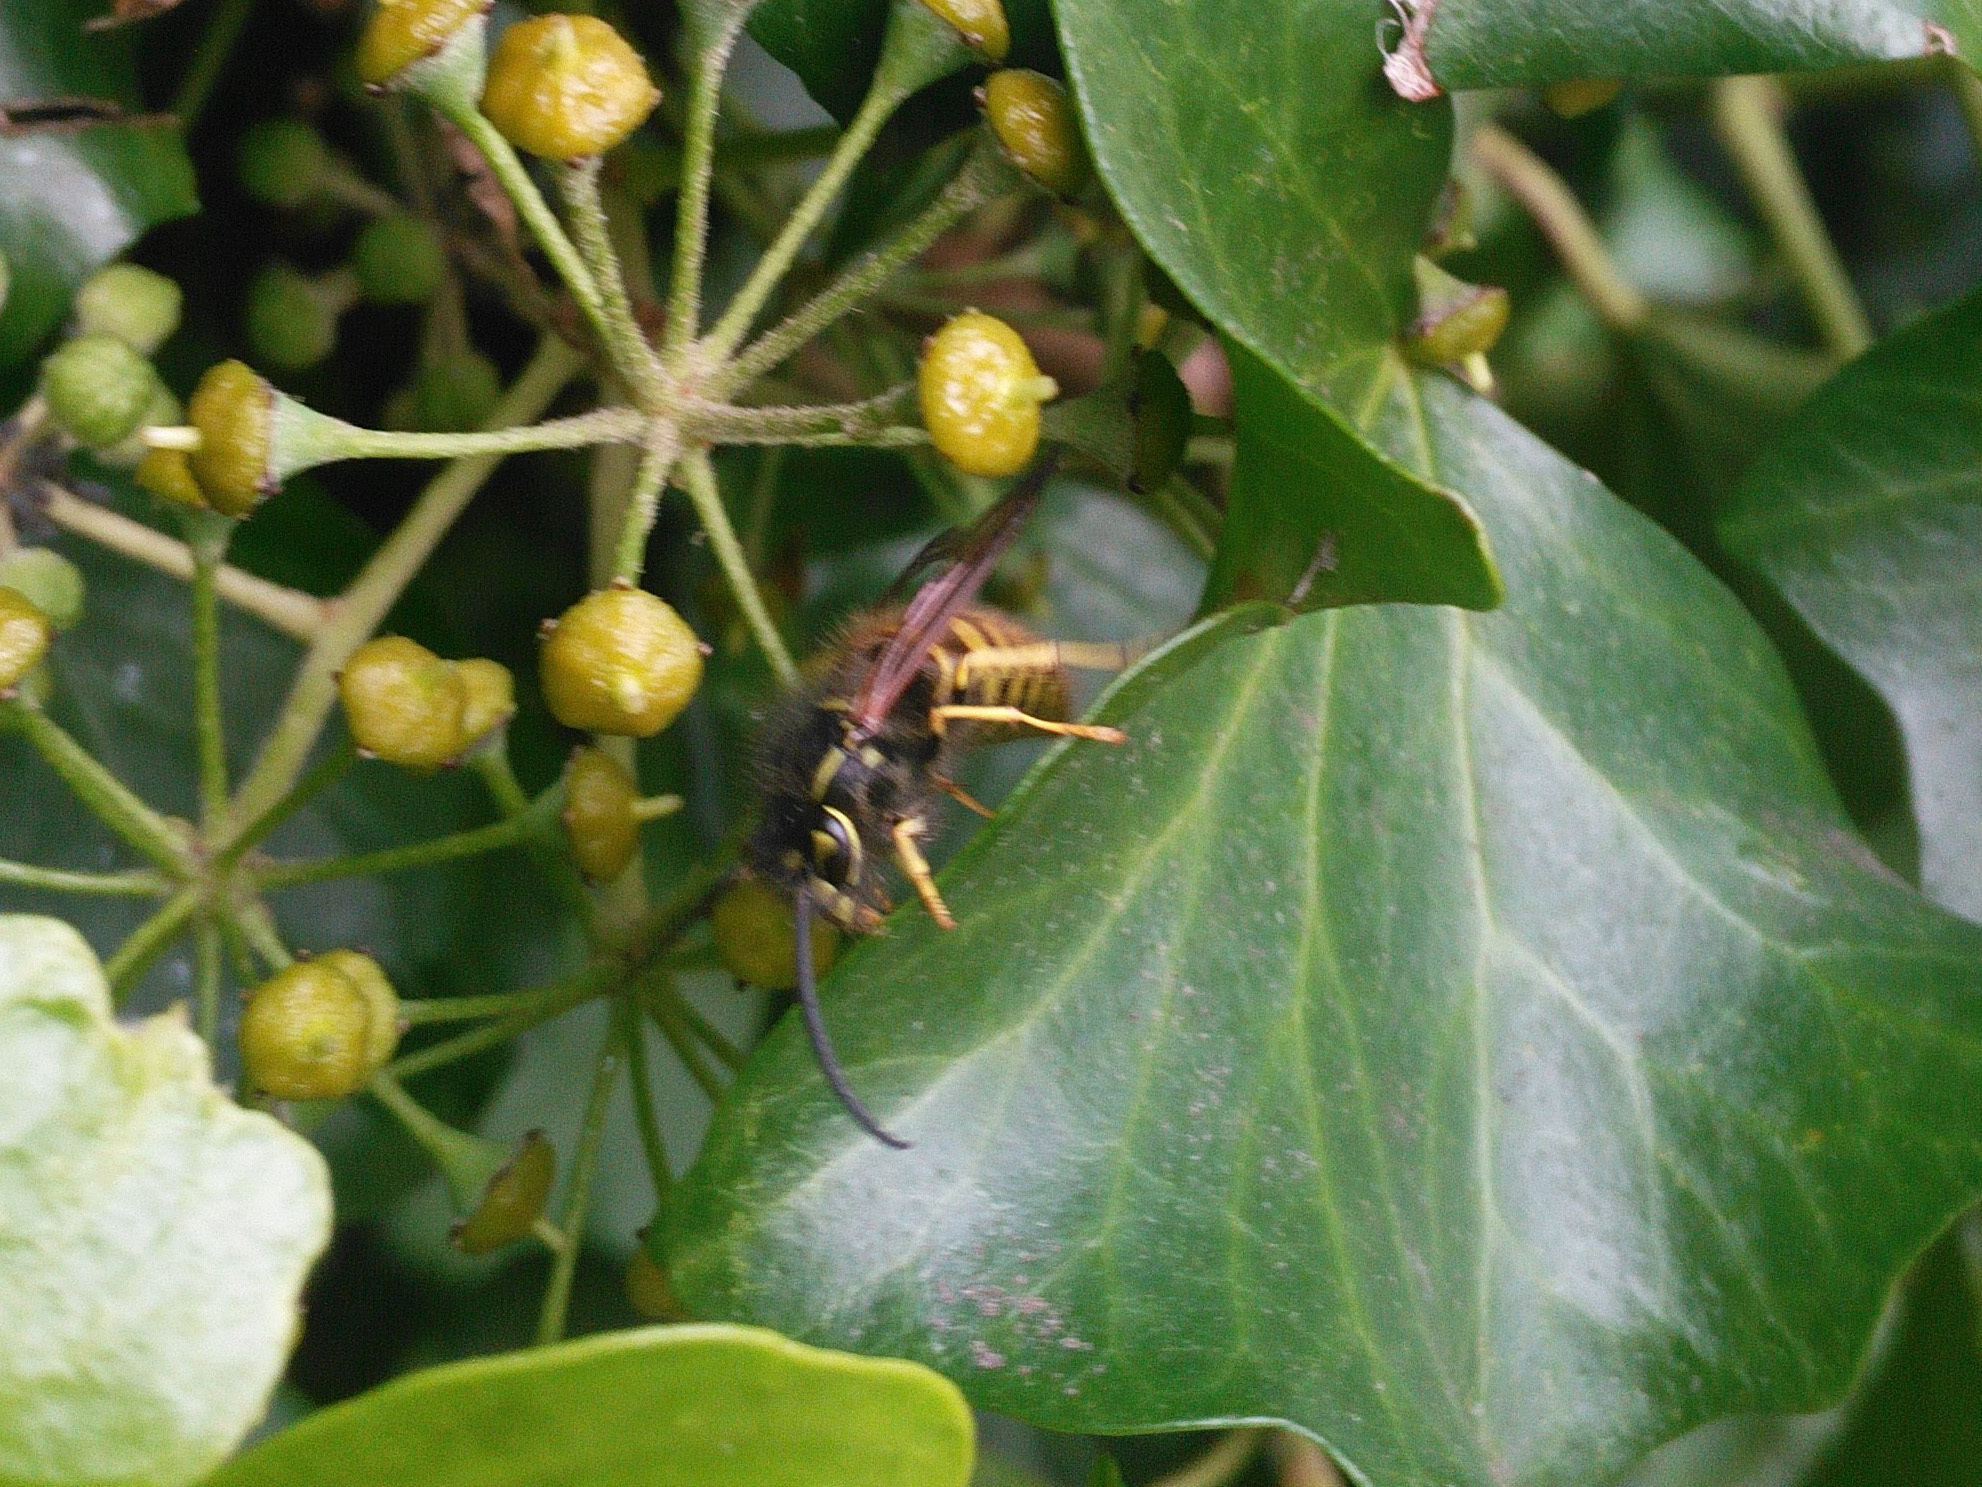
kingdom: Animalia
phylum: Arthropoda
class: Insecta
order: Hymenoptera
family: Vespidae
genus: Vespula
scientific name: Vespula vulgaris
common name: Common wasp
